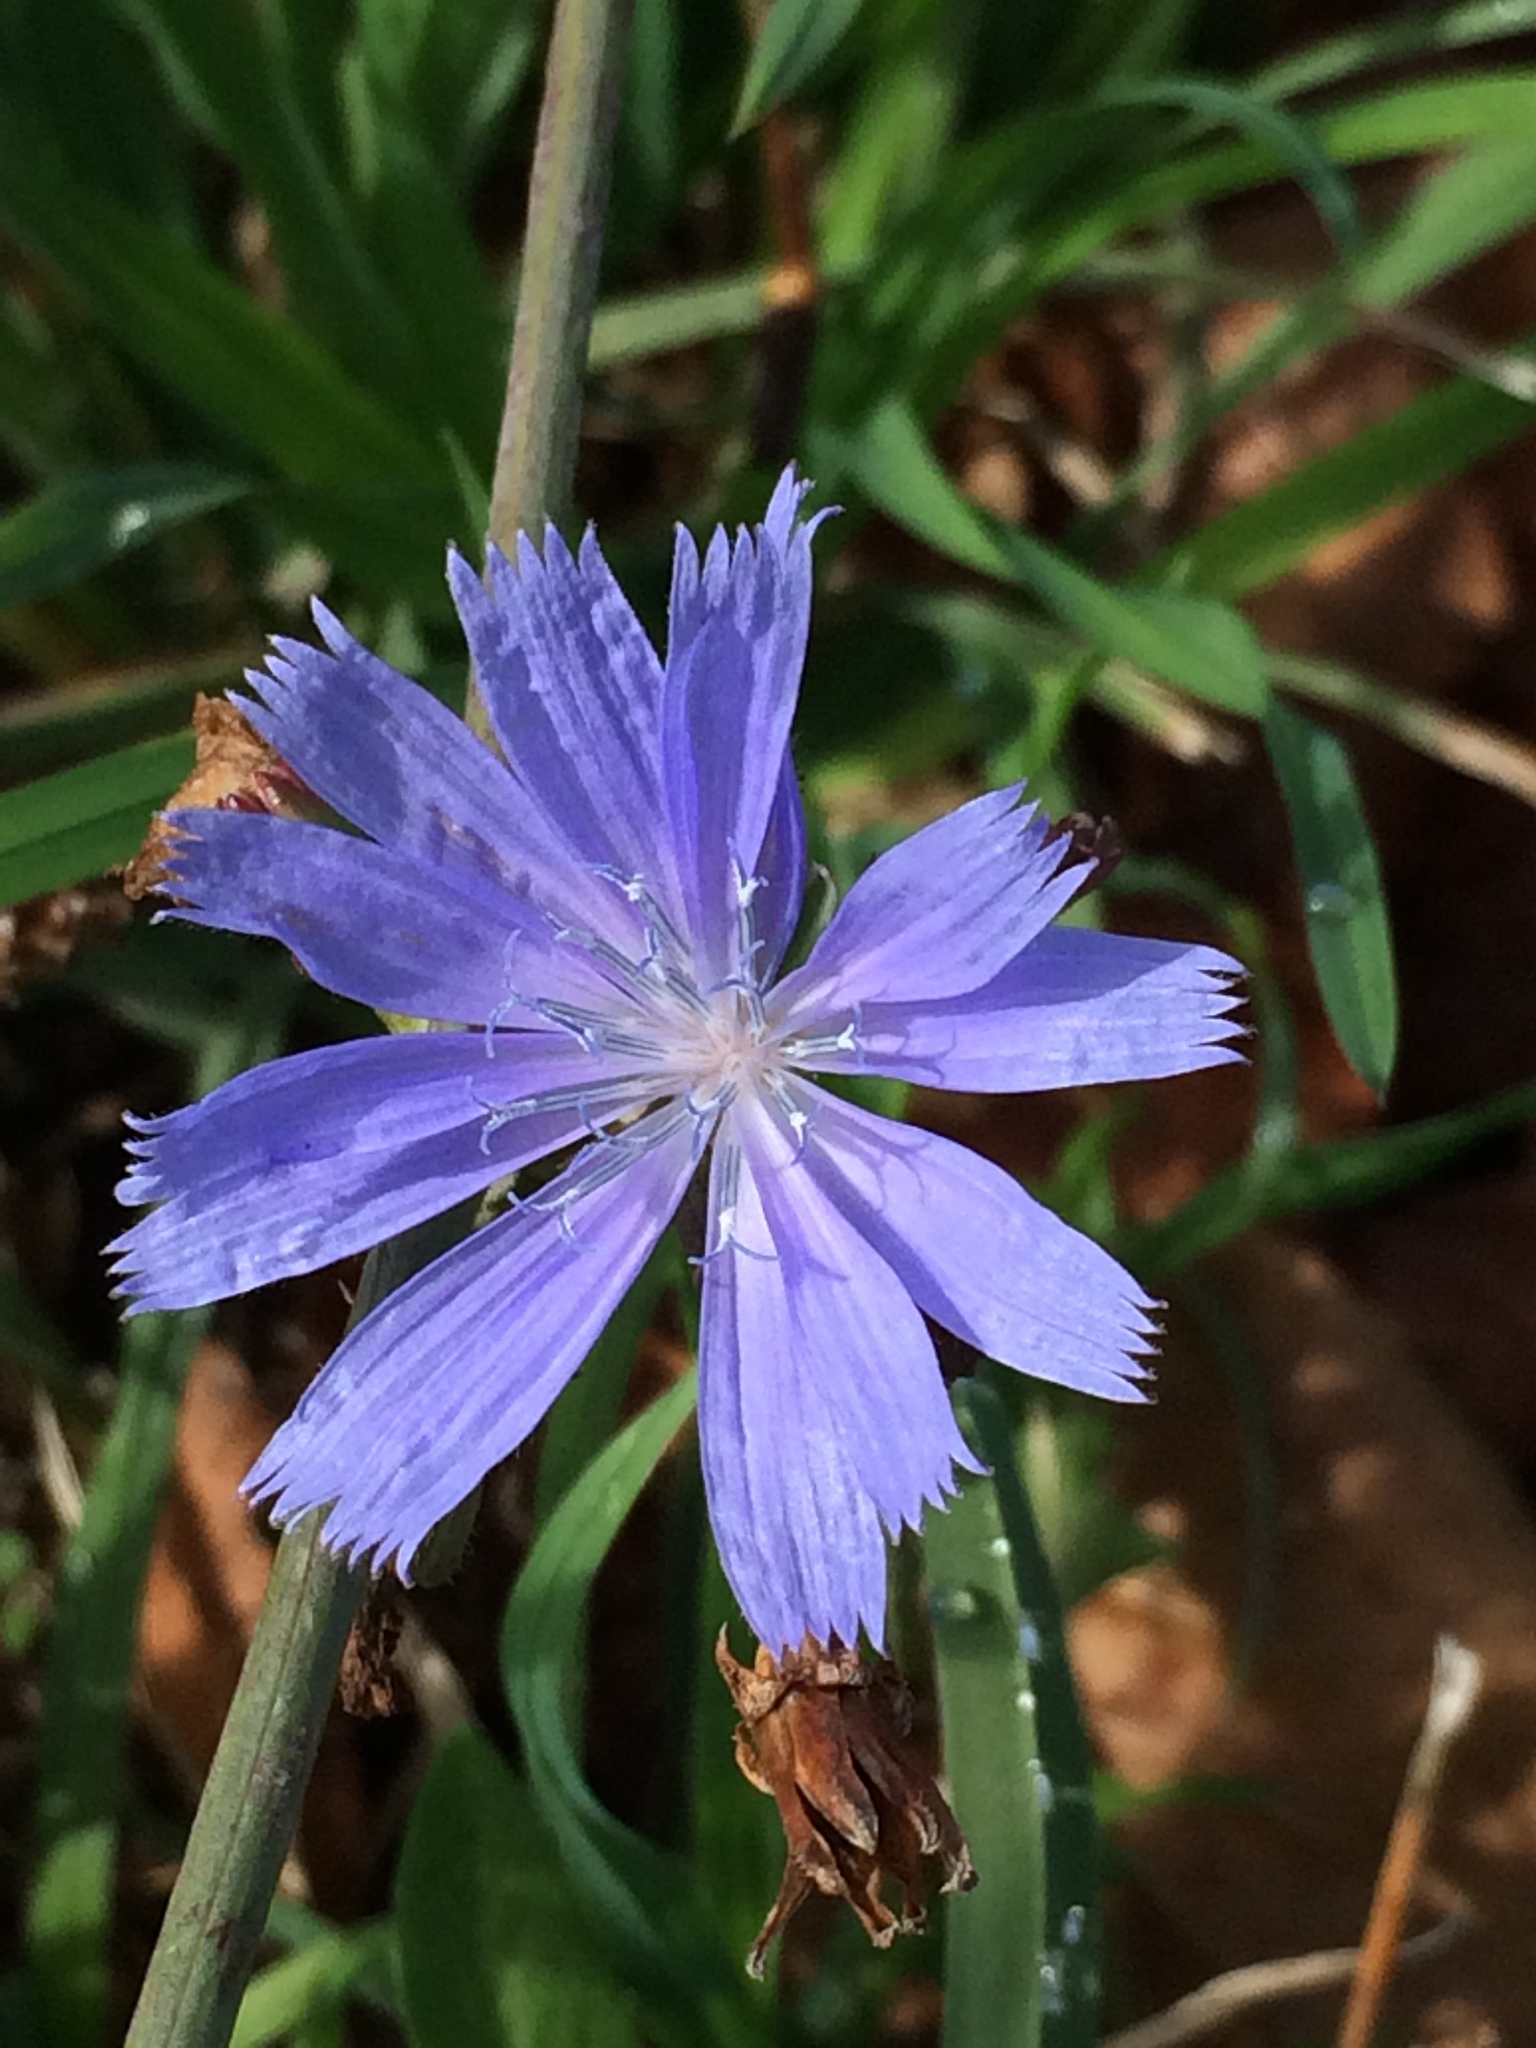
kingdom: Plantae
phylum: Tracheophyta
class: Magnoliopsida
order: Asterales
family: Asteraceae
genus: Cichorium
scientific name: Cichorium intybus
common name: Chicory
